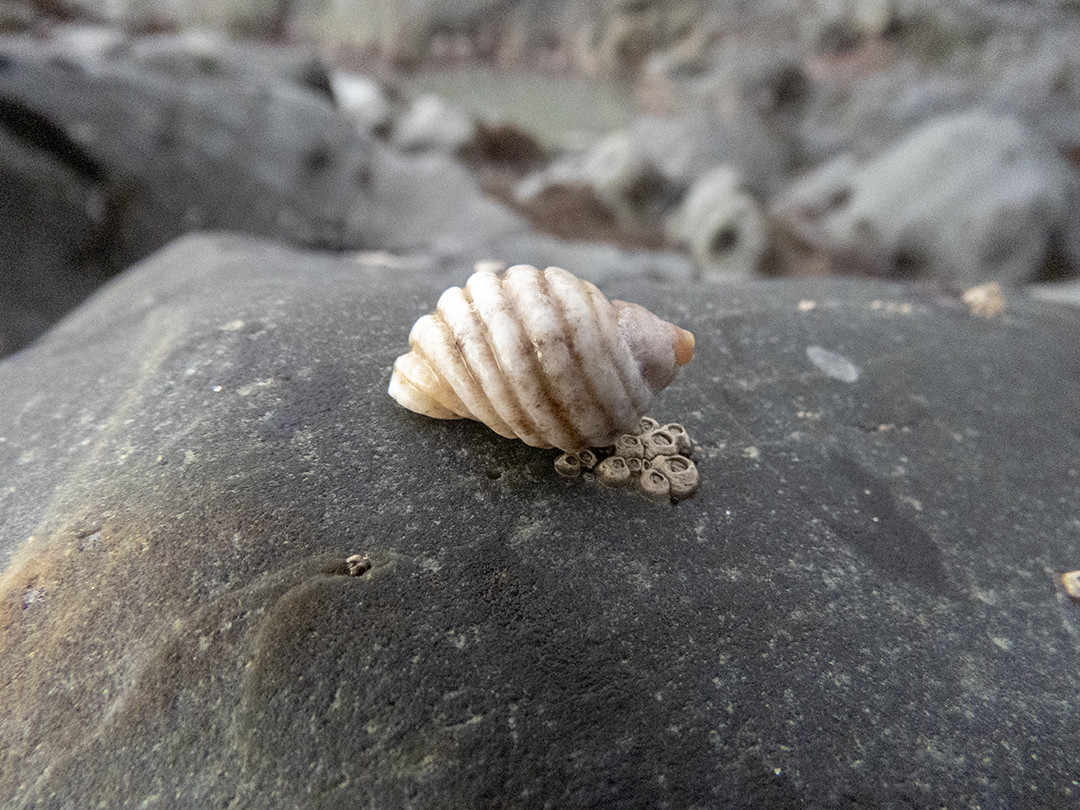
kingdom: Animalia
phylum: Mollusca
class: Gastropoda
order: Neogastropoda
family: Muricidae
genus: Paratrophon
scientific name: Paratrophon patens
